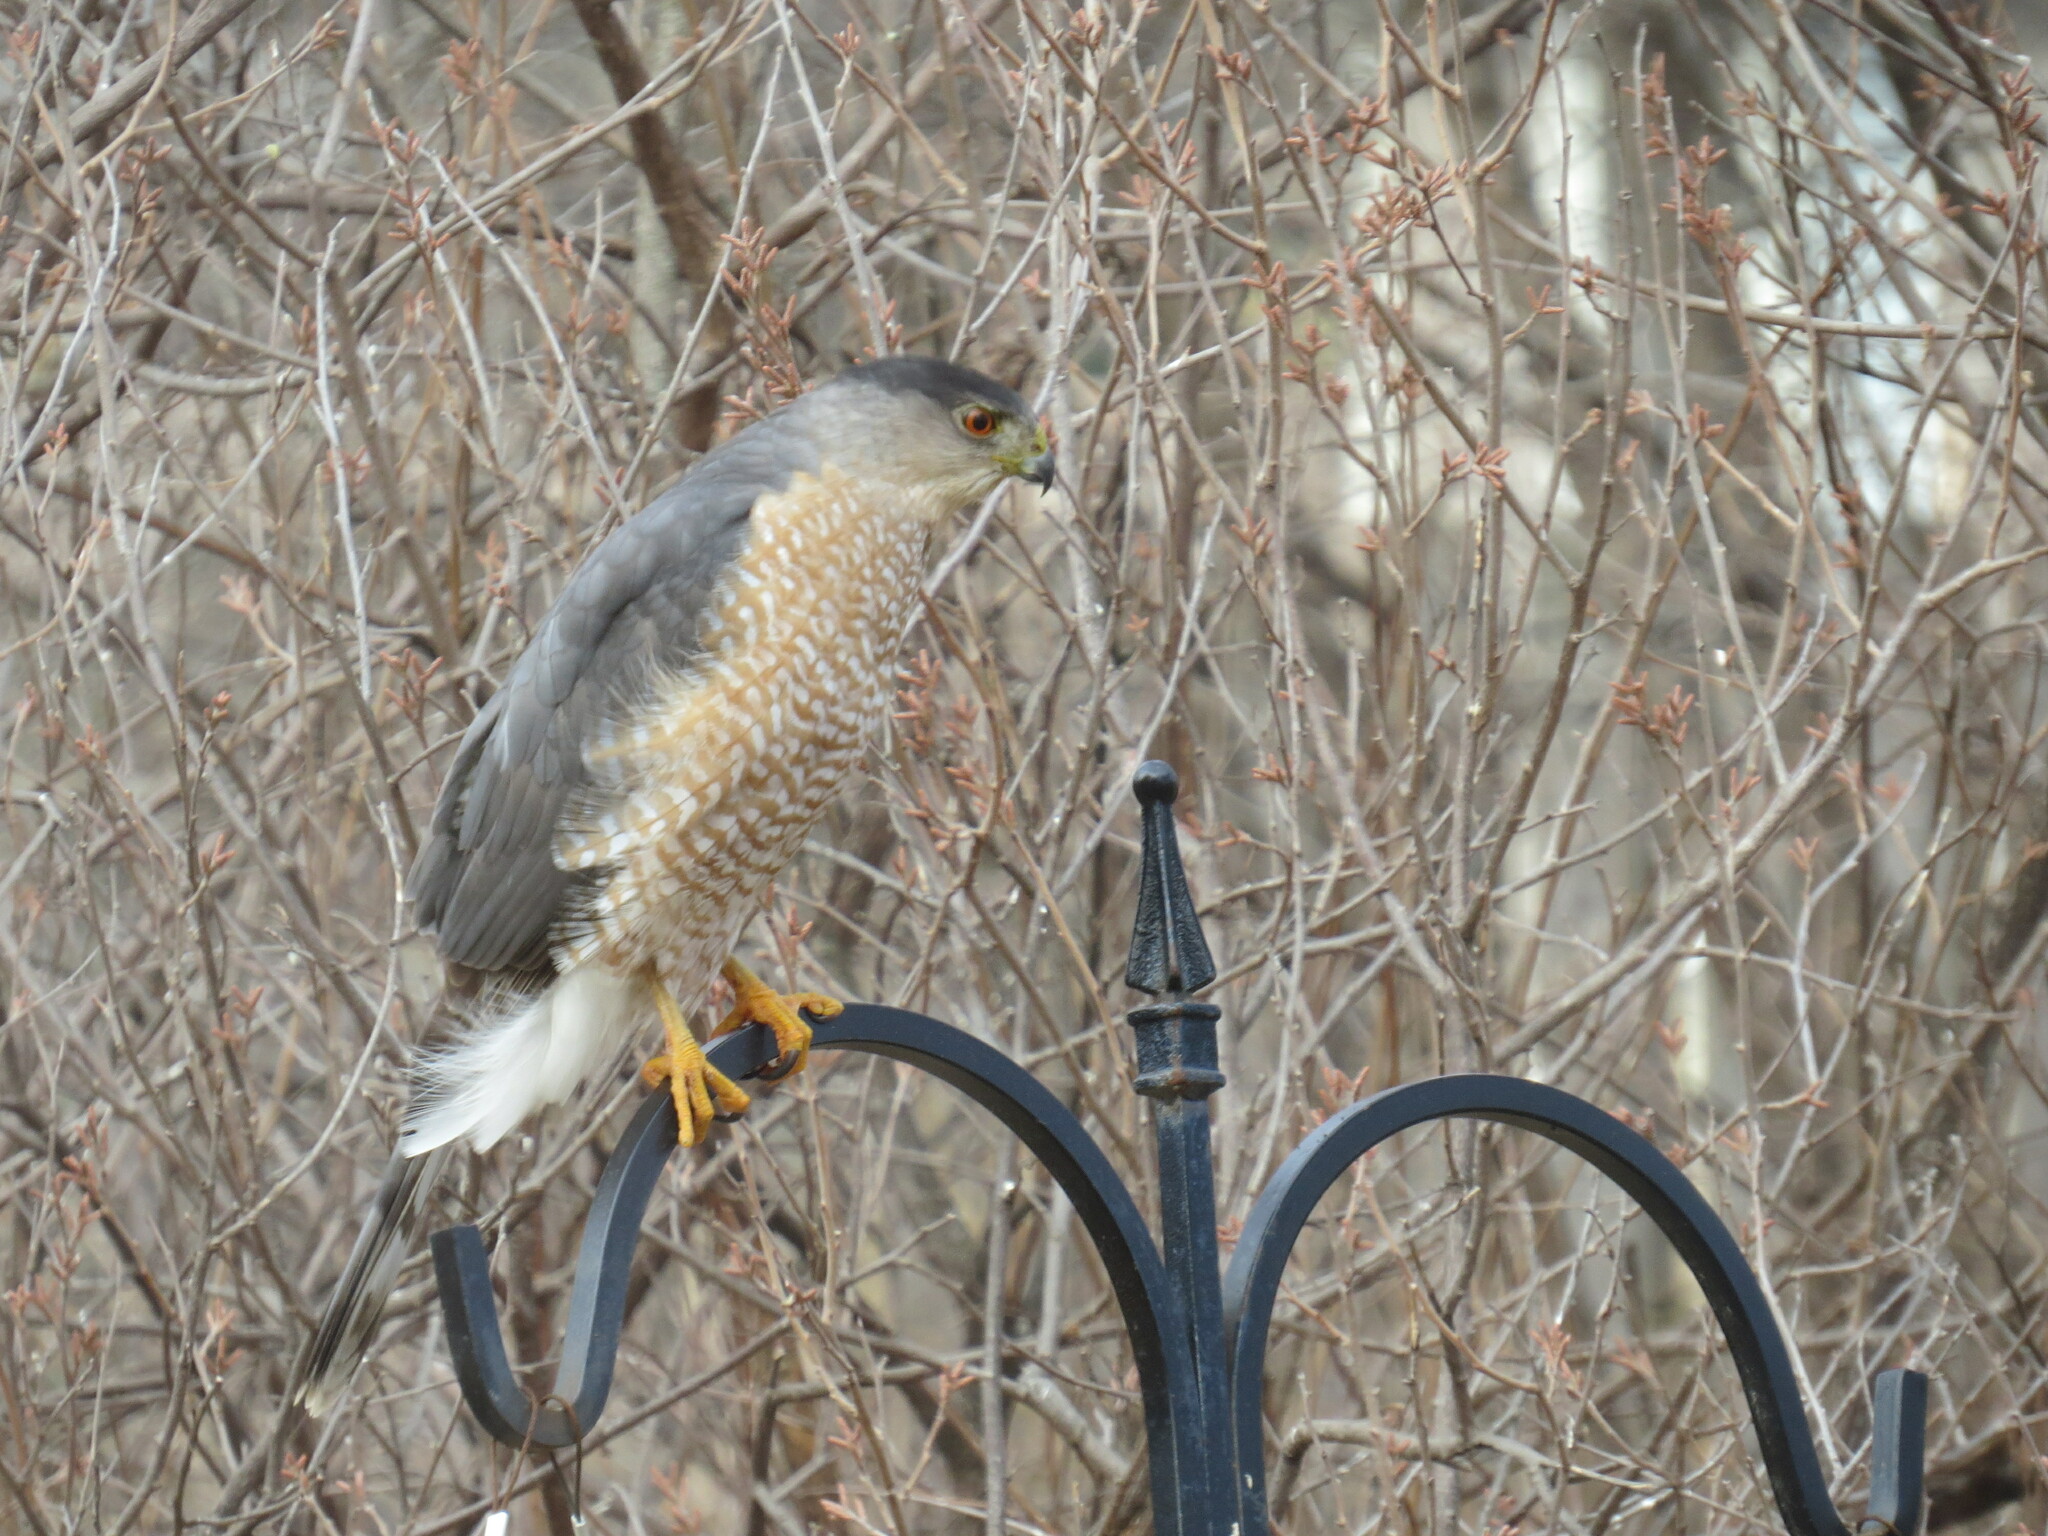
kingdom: Animalia
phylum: Chordata
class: Aves
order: Accipitriformes
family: Accipitridae
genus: Accipiter
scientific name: Accipiter cooperii
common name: Cooper's hawk
